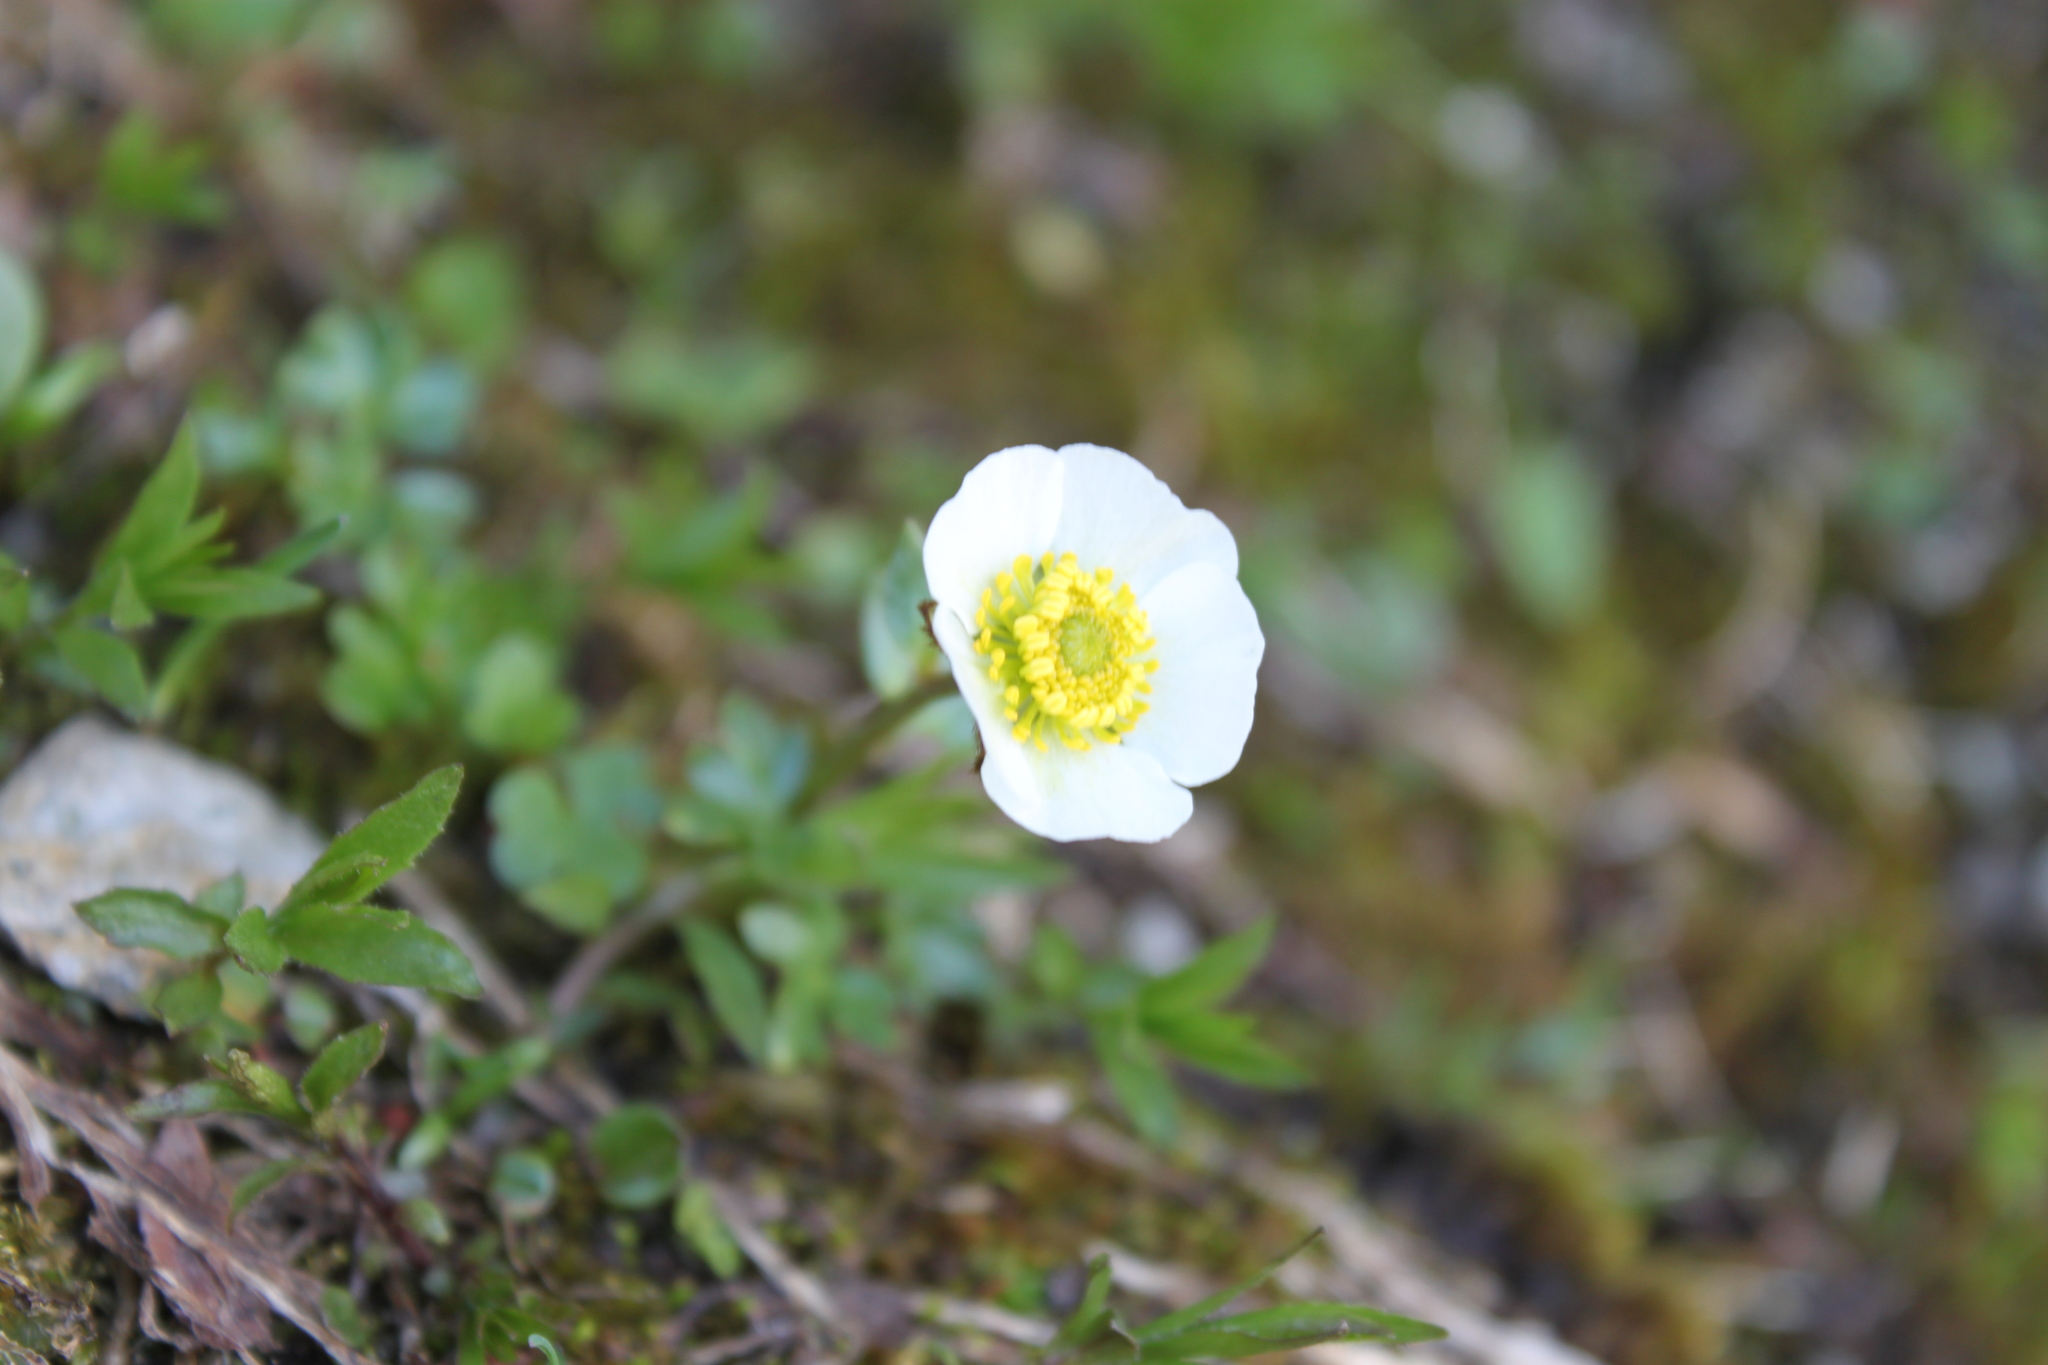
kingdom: Plantae
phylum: Tracheophyta
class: Magnoliopsida
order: Ranunculales
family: Ranunculaceae
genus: Ranunculus
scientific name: Ranunculus glacialis
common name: Glacier buttercup
